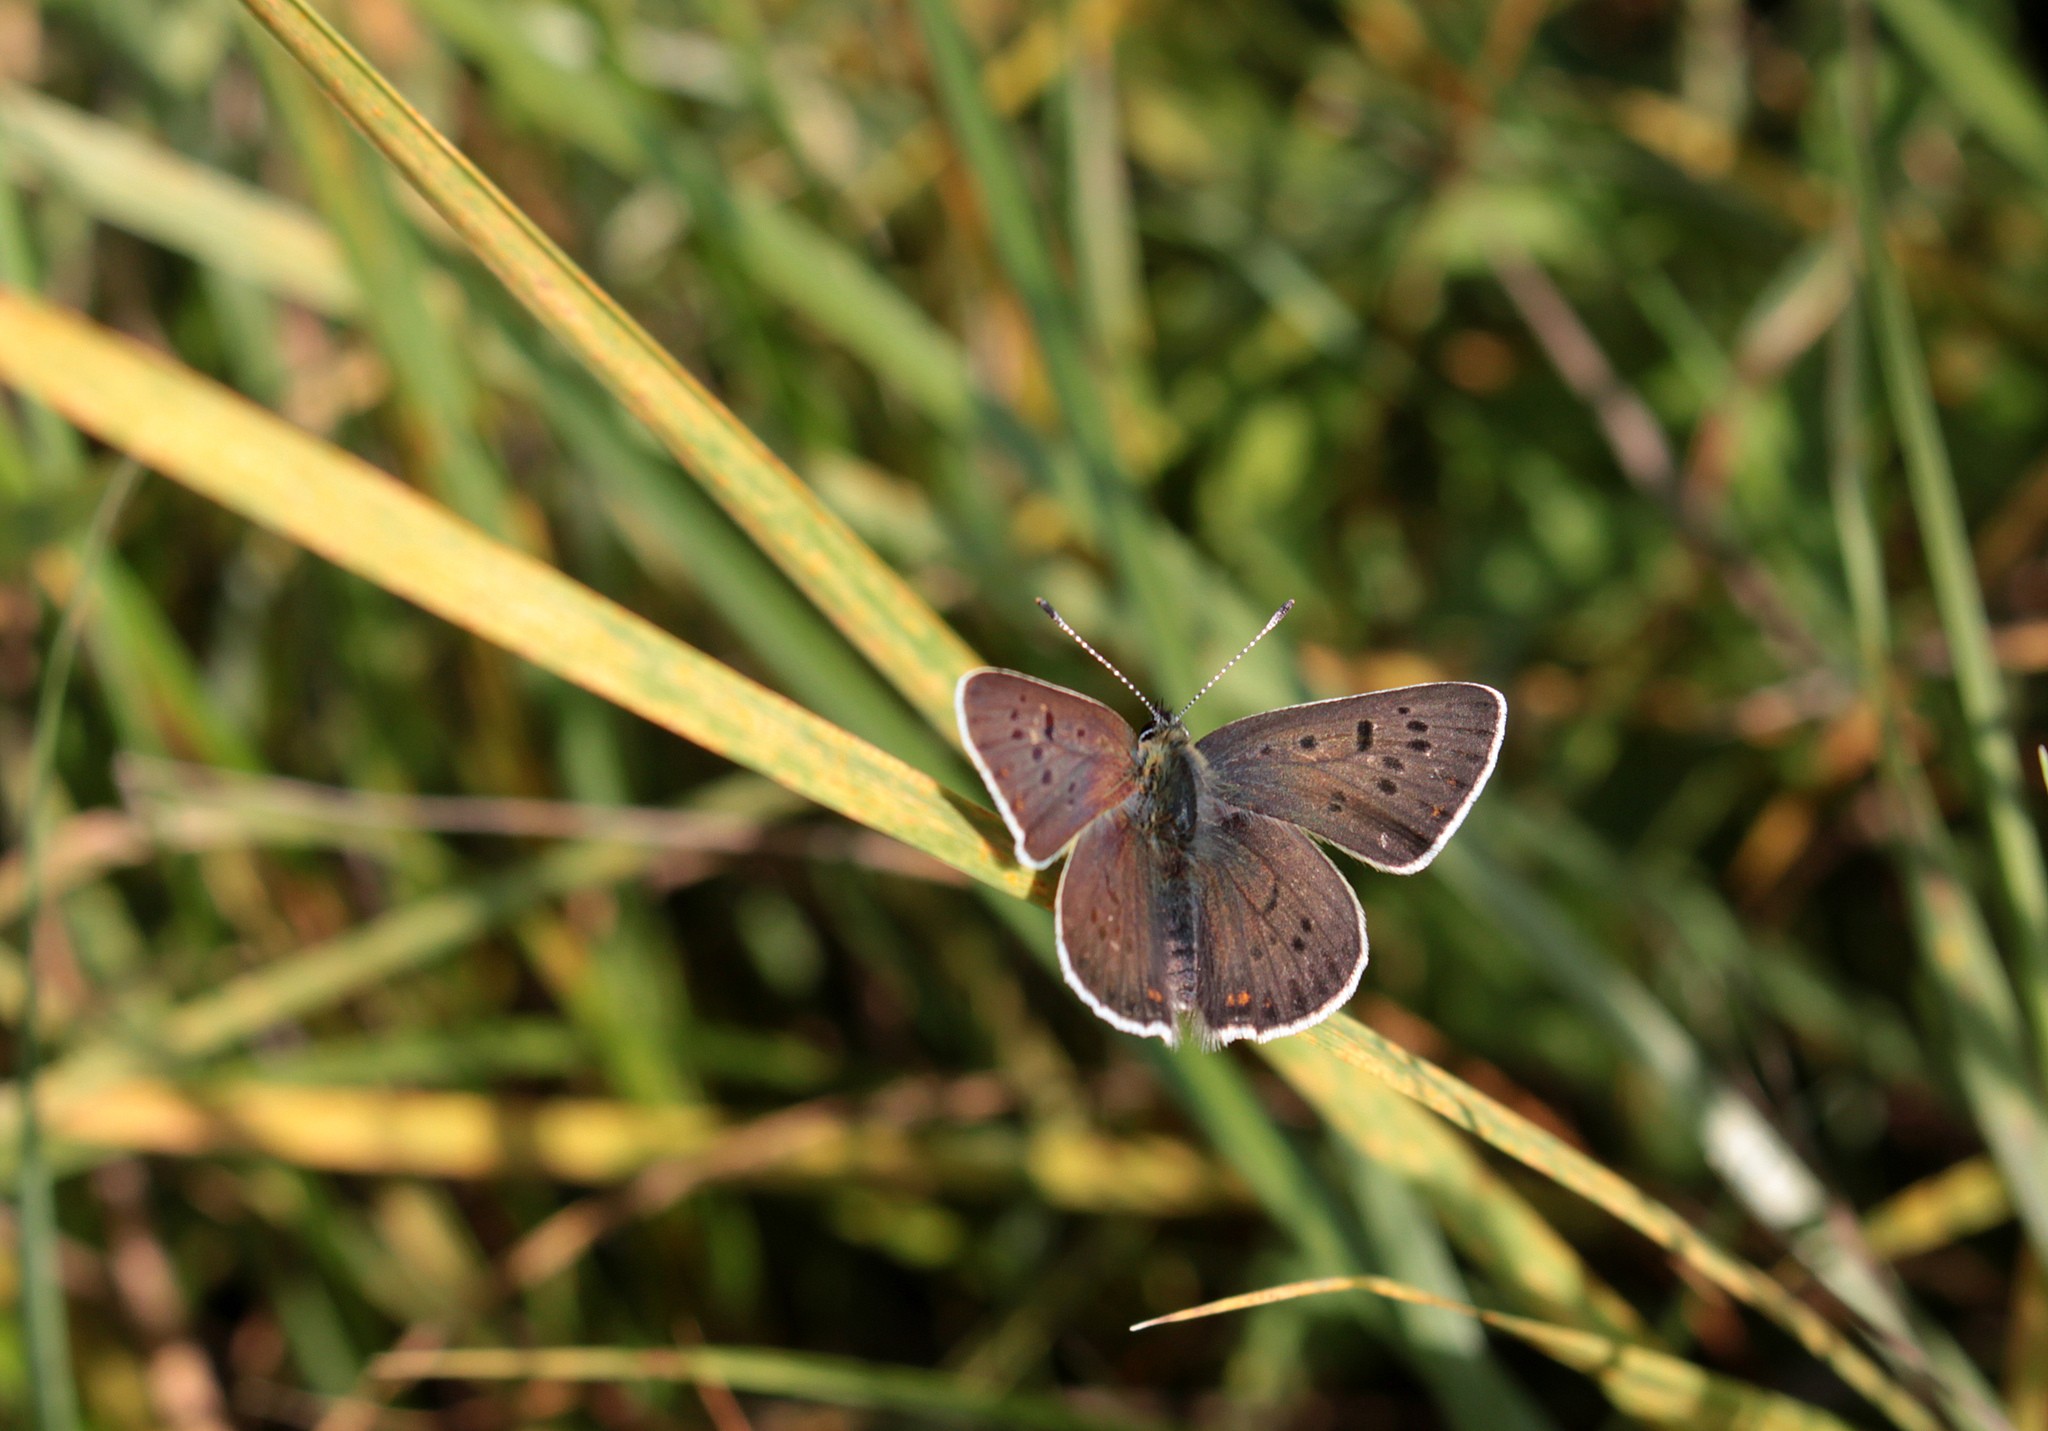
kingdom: Animalia
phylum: Arthropoda
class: Insecta
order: Lepidoptera
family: Lycaenidae
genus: Loweia
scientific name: Loweia tityrus
